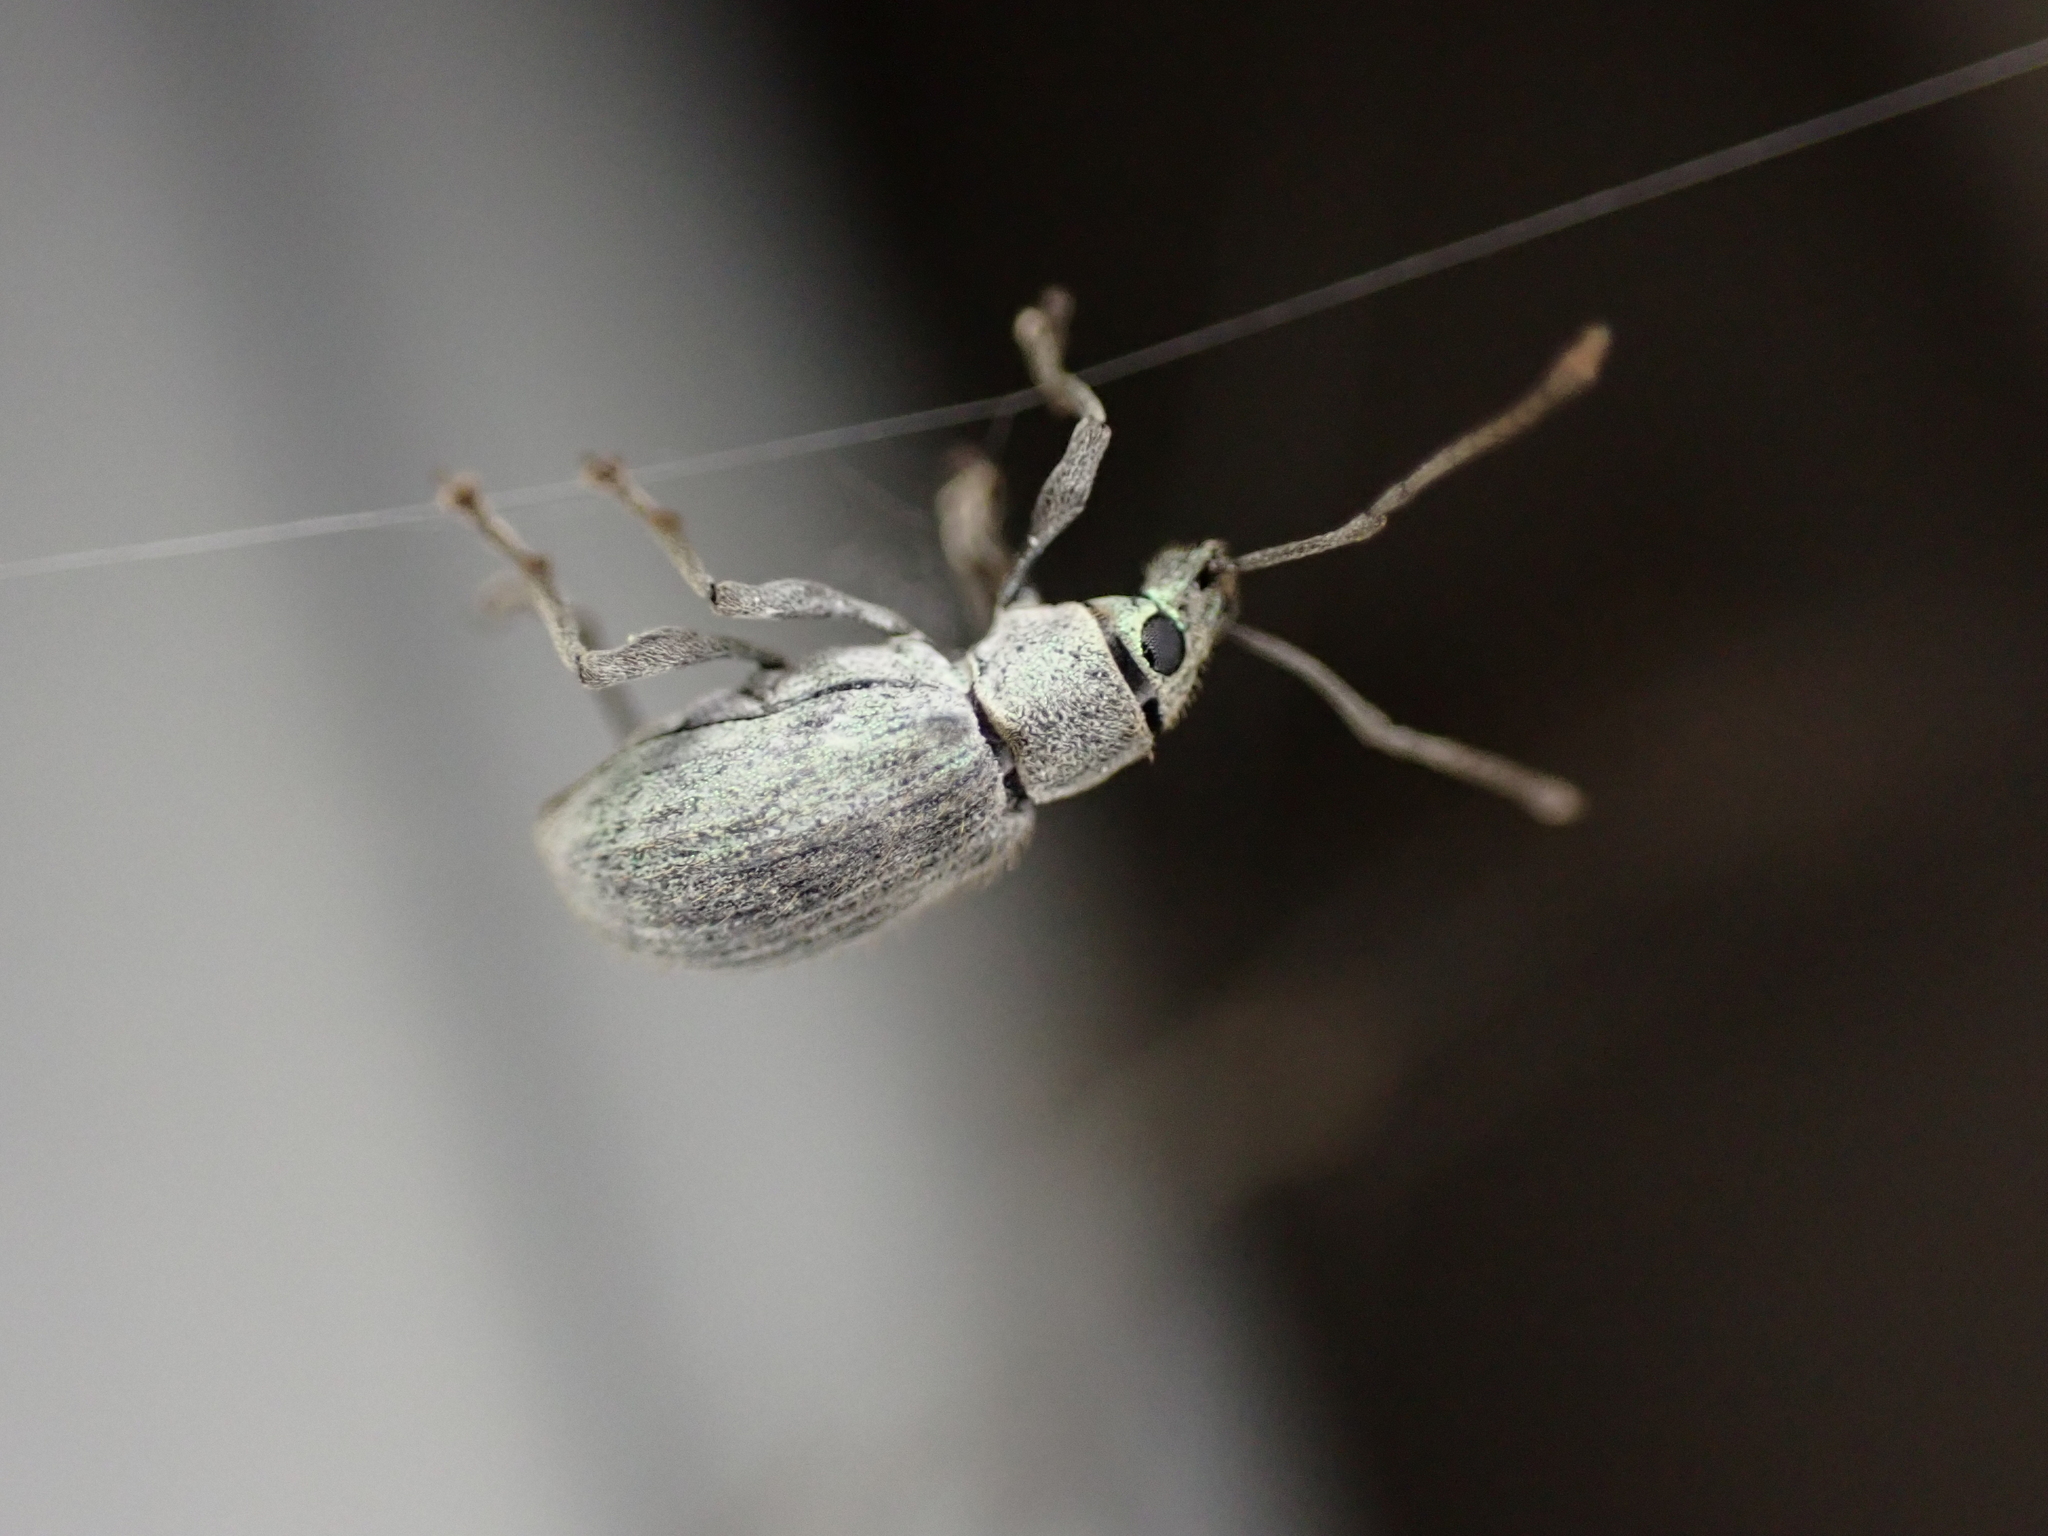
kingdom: Animalia
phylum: Arthropoda
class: Insecta
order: Coleoptera
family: Curculionidae
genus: Cyrtepistomus
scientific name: Cyrtepistomus castaneus
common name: Weevil
